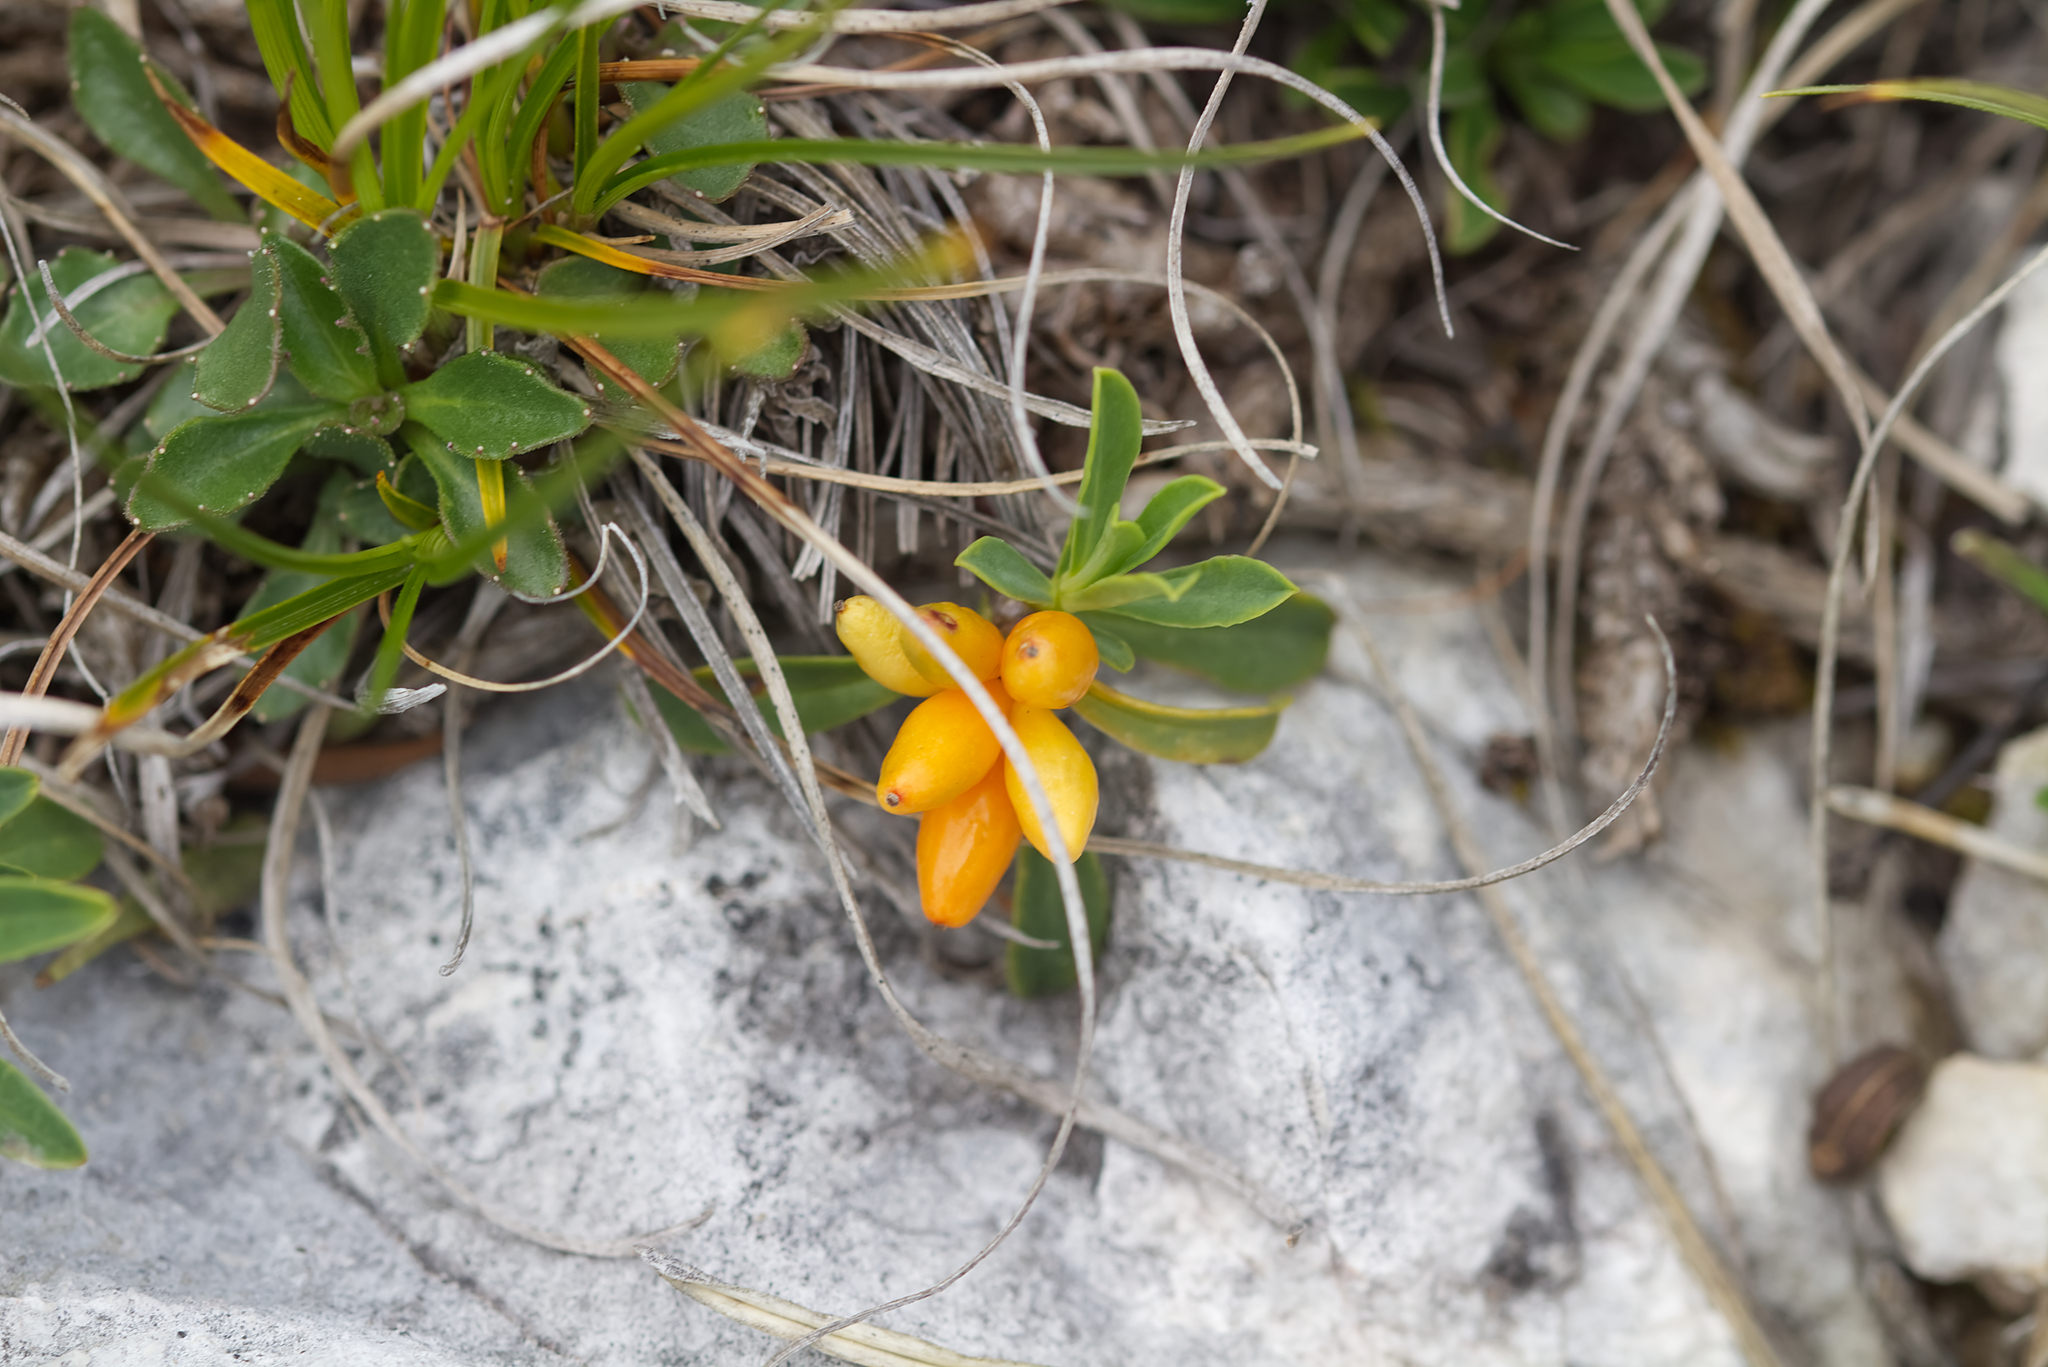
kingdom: Plantae
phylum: Tracheophyta
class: Magnoliopsida
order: Malvales
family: Thymelaeaceae
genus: Daphne
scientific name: Daphne striata
